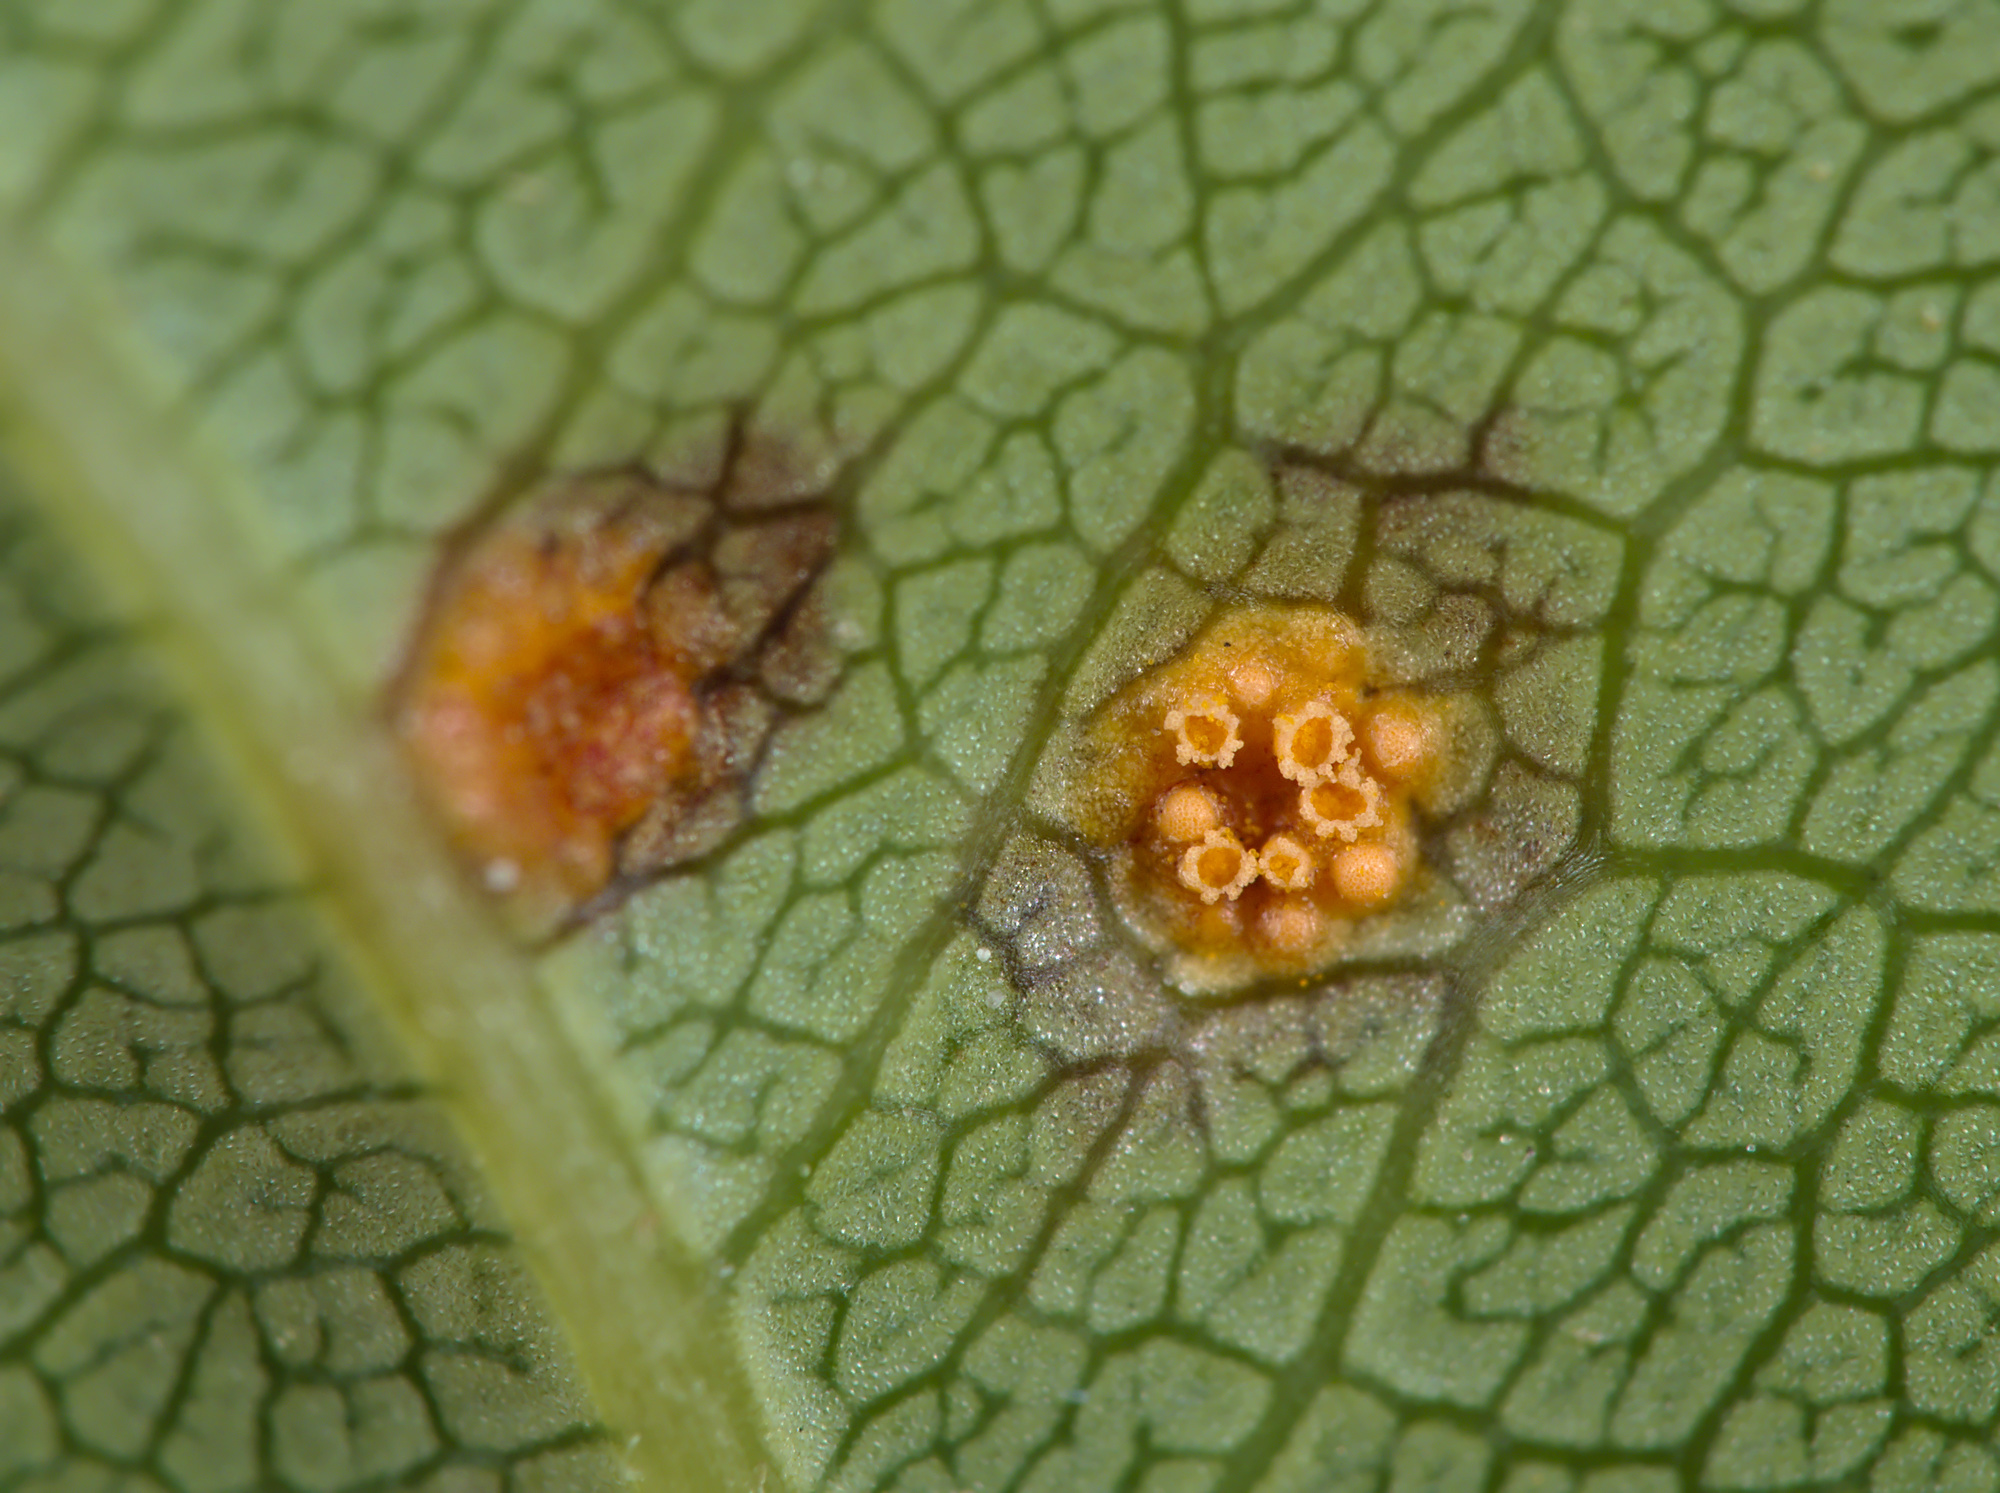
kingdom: Fungi
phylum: Basidiomycota
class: Pucciniomycetes
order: Pucciniales
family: Pucciniaceae
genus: Puccinia
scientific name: Puccinia coronata
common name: Crown rust
